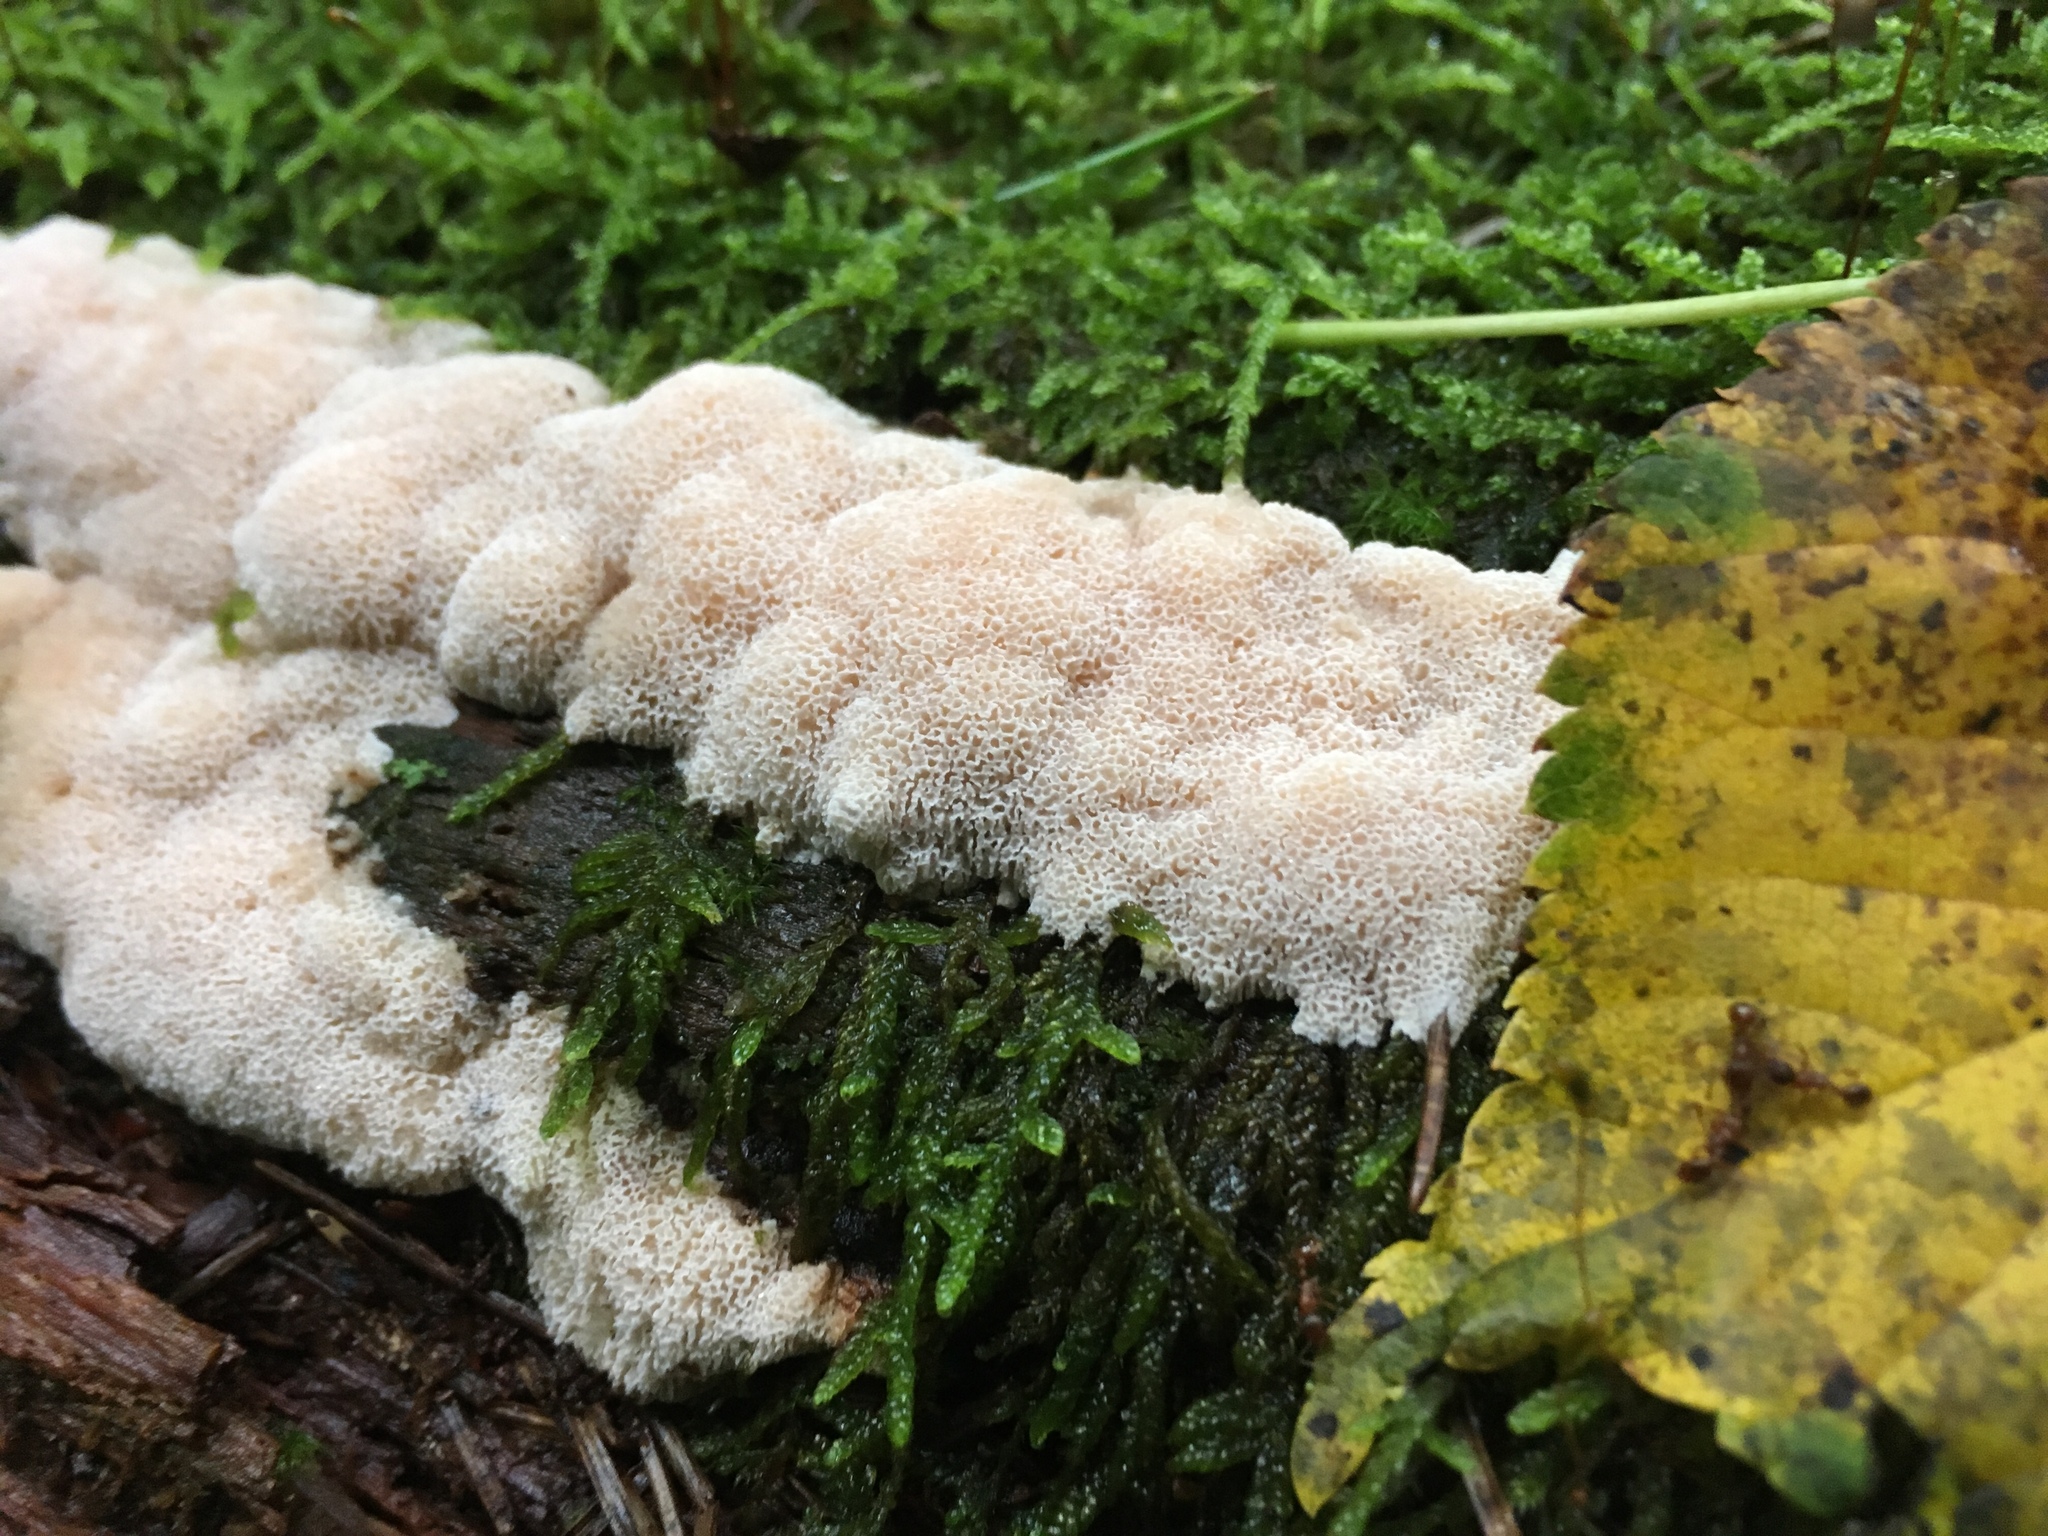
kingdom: Fungi
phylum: Basidiomycota
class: Agaricomycetes
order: Polyporales
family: Polyporaceae
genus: Rhodonia
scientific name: Rhodonia placenta
